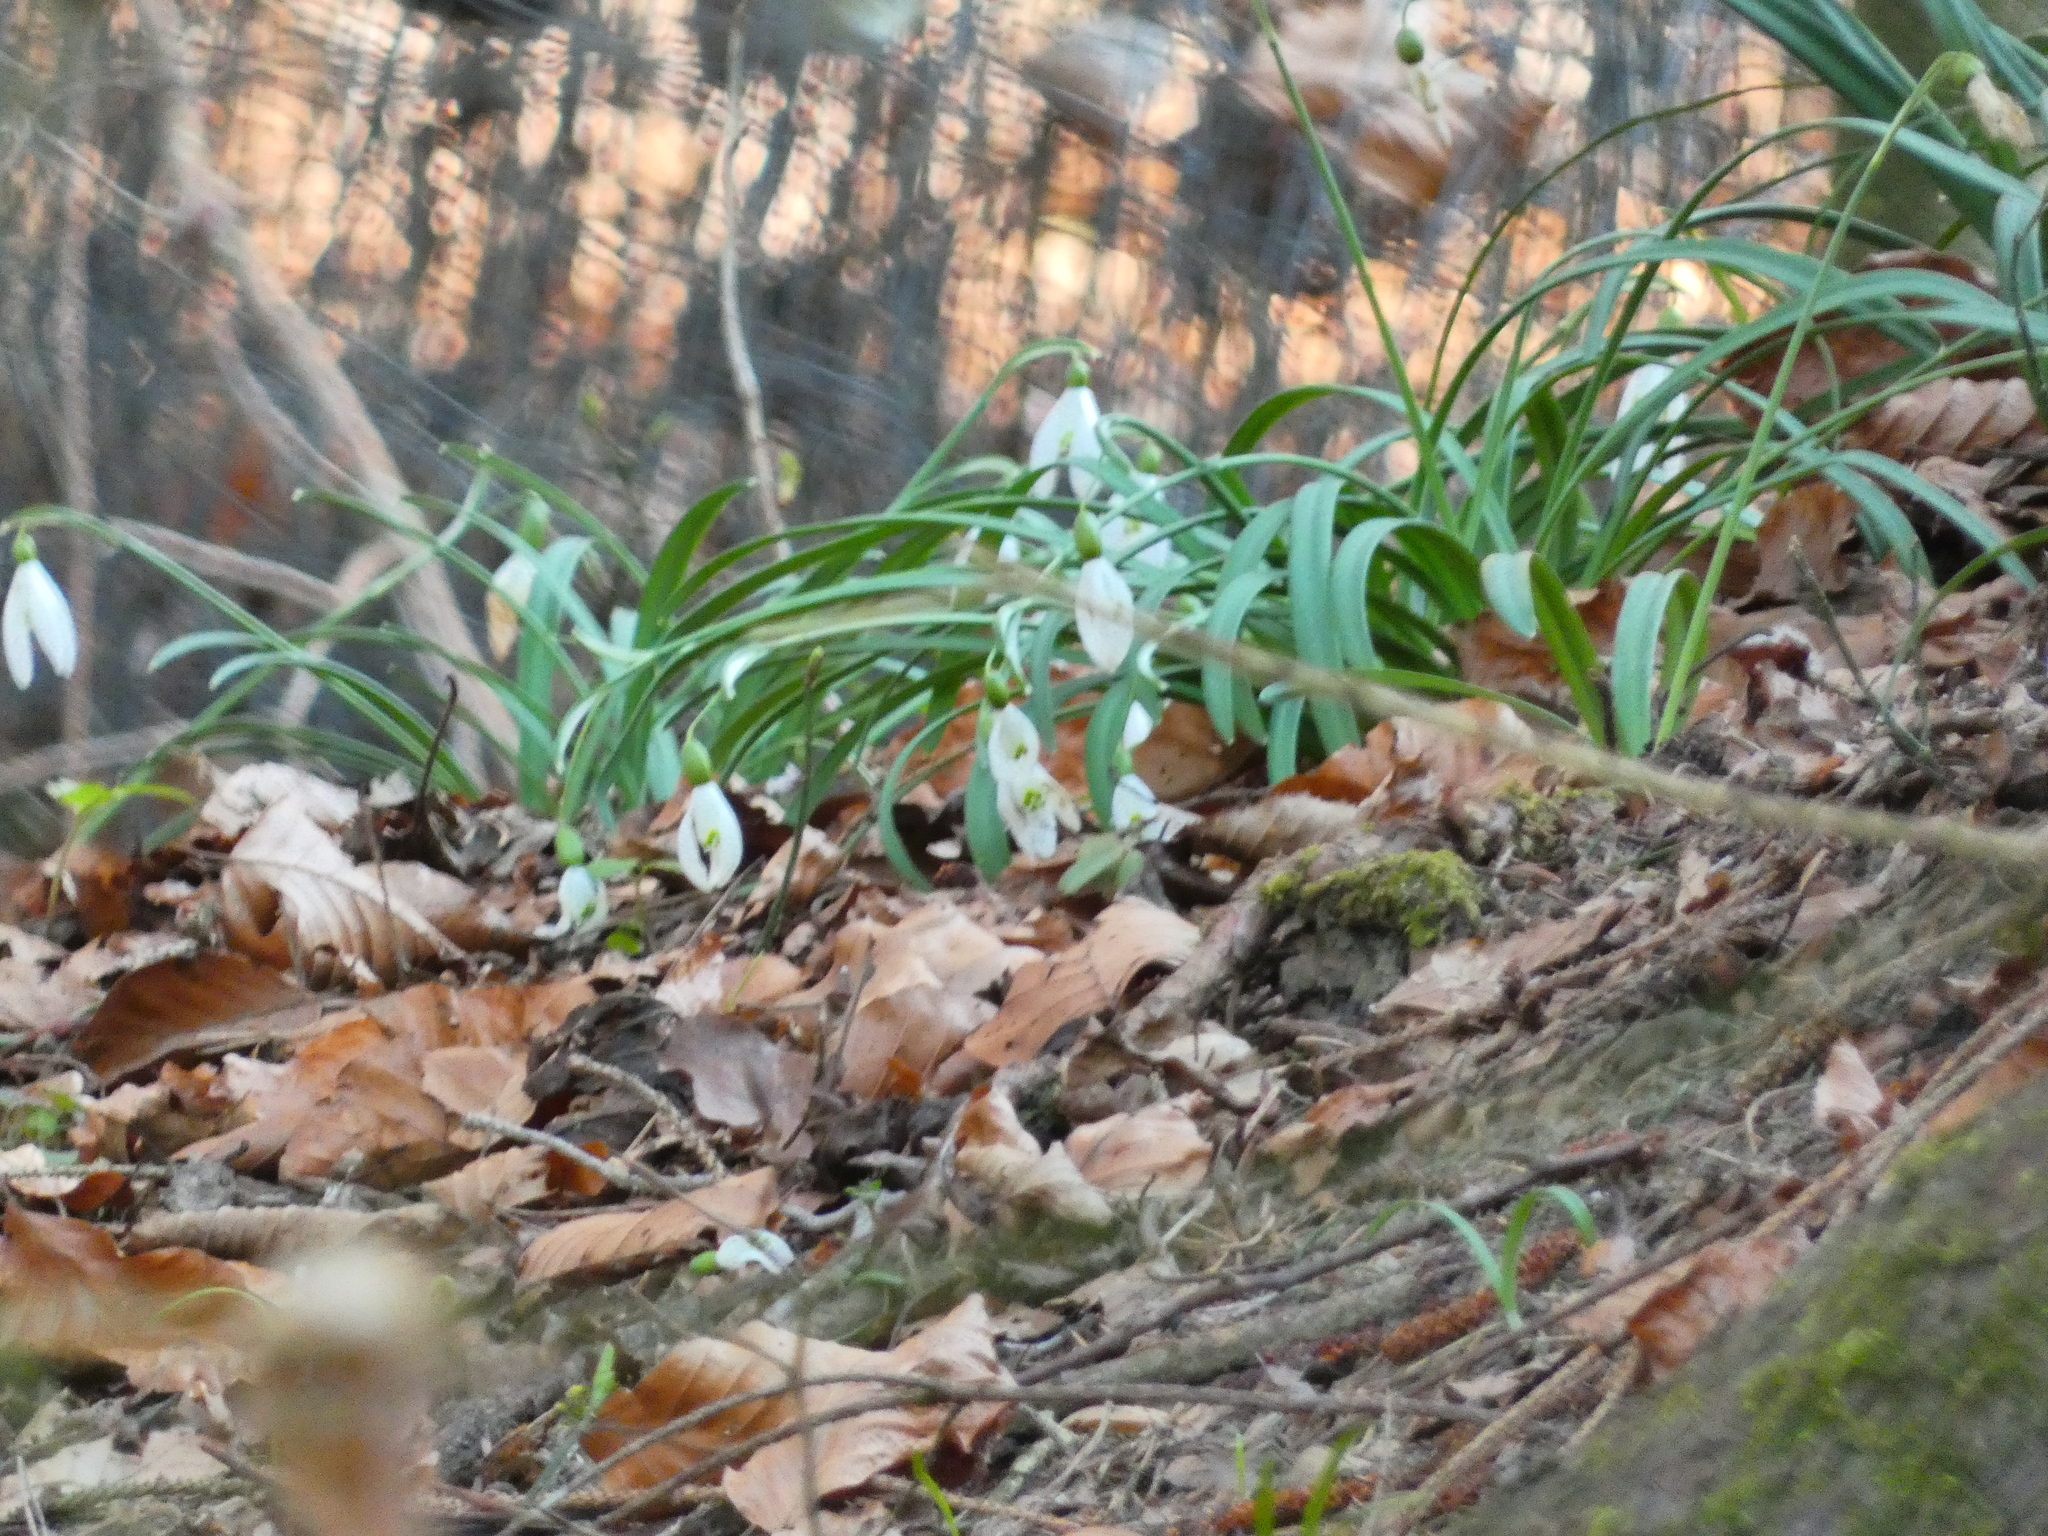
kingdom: Plantae
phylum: Tracheophyta
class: Liliopsida
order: Asparagales
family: Amaryllidaceae
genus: Galanthus
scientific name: Galanthus nivalis
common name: Snowdrop
